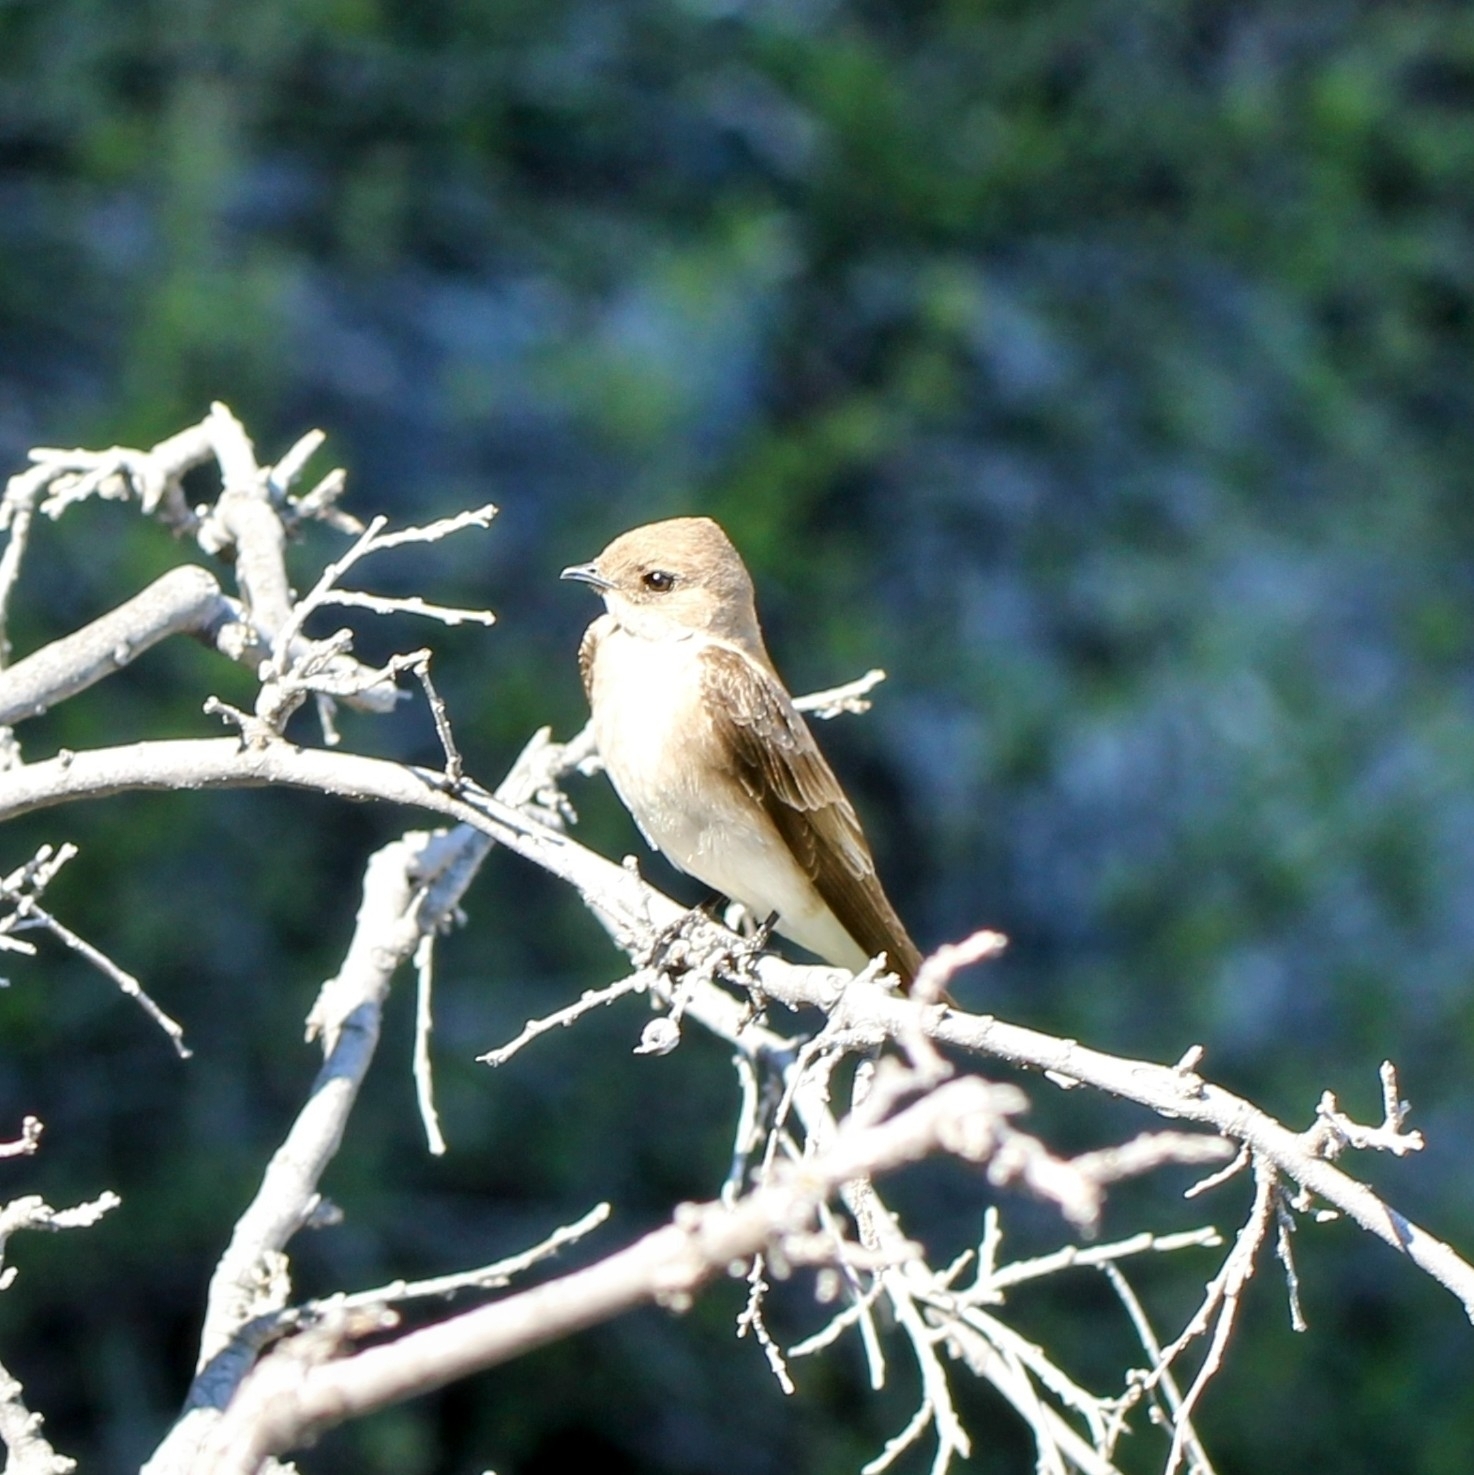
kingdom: Animalia
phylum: Chordata
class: Aves
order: Passeriformes
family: Hirundinidae
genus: Stelgidopteryx
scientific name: Stelgidopteryx serripennis
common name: Northern rough-winged swallow
